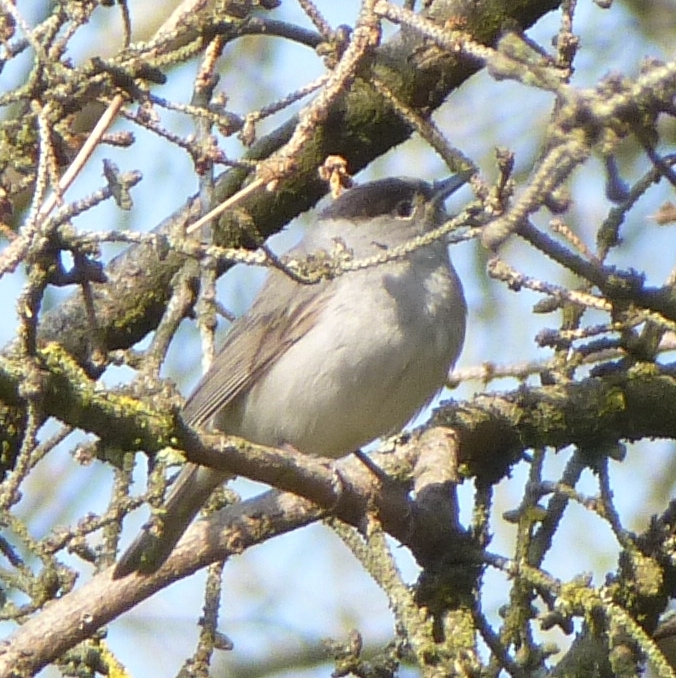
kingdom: Animalia
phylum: Chordata
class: Aves
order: Passeriformes
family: Sylviidae
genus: Sylvia
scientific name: Sylvia atricapilla
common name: Eurasian blackcap
